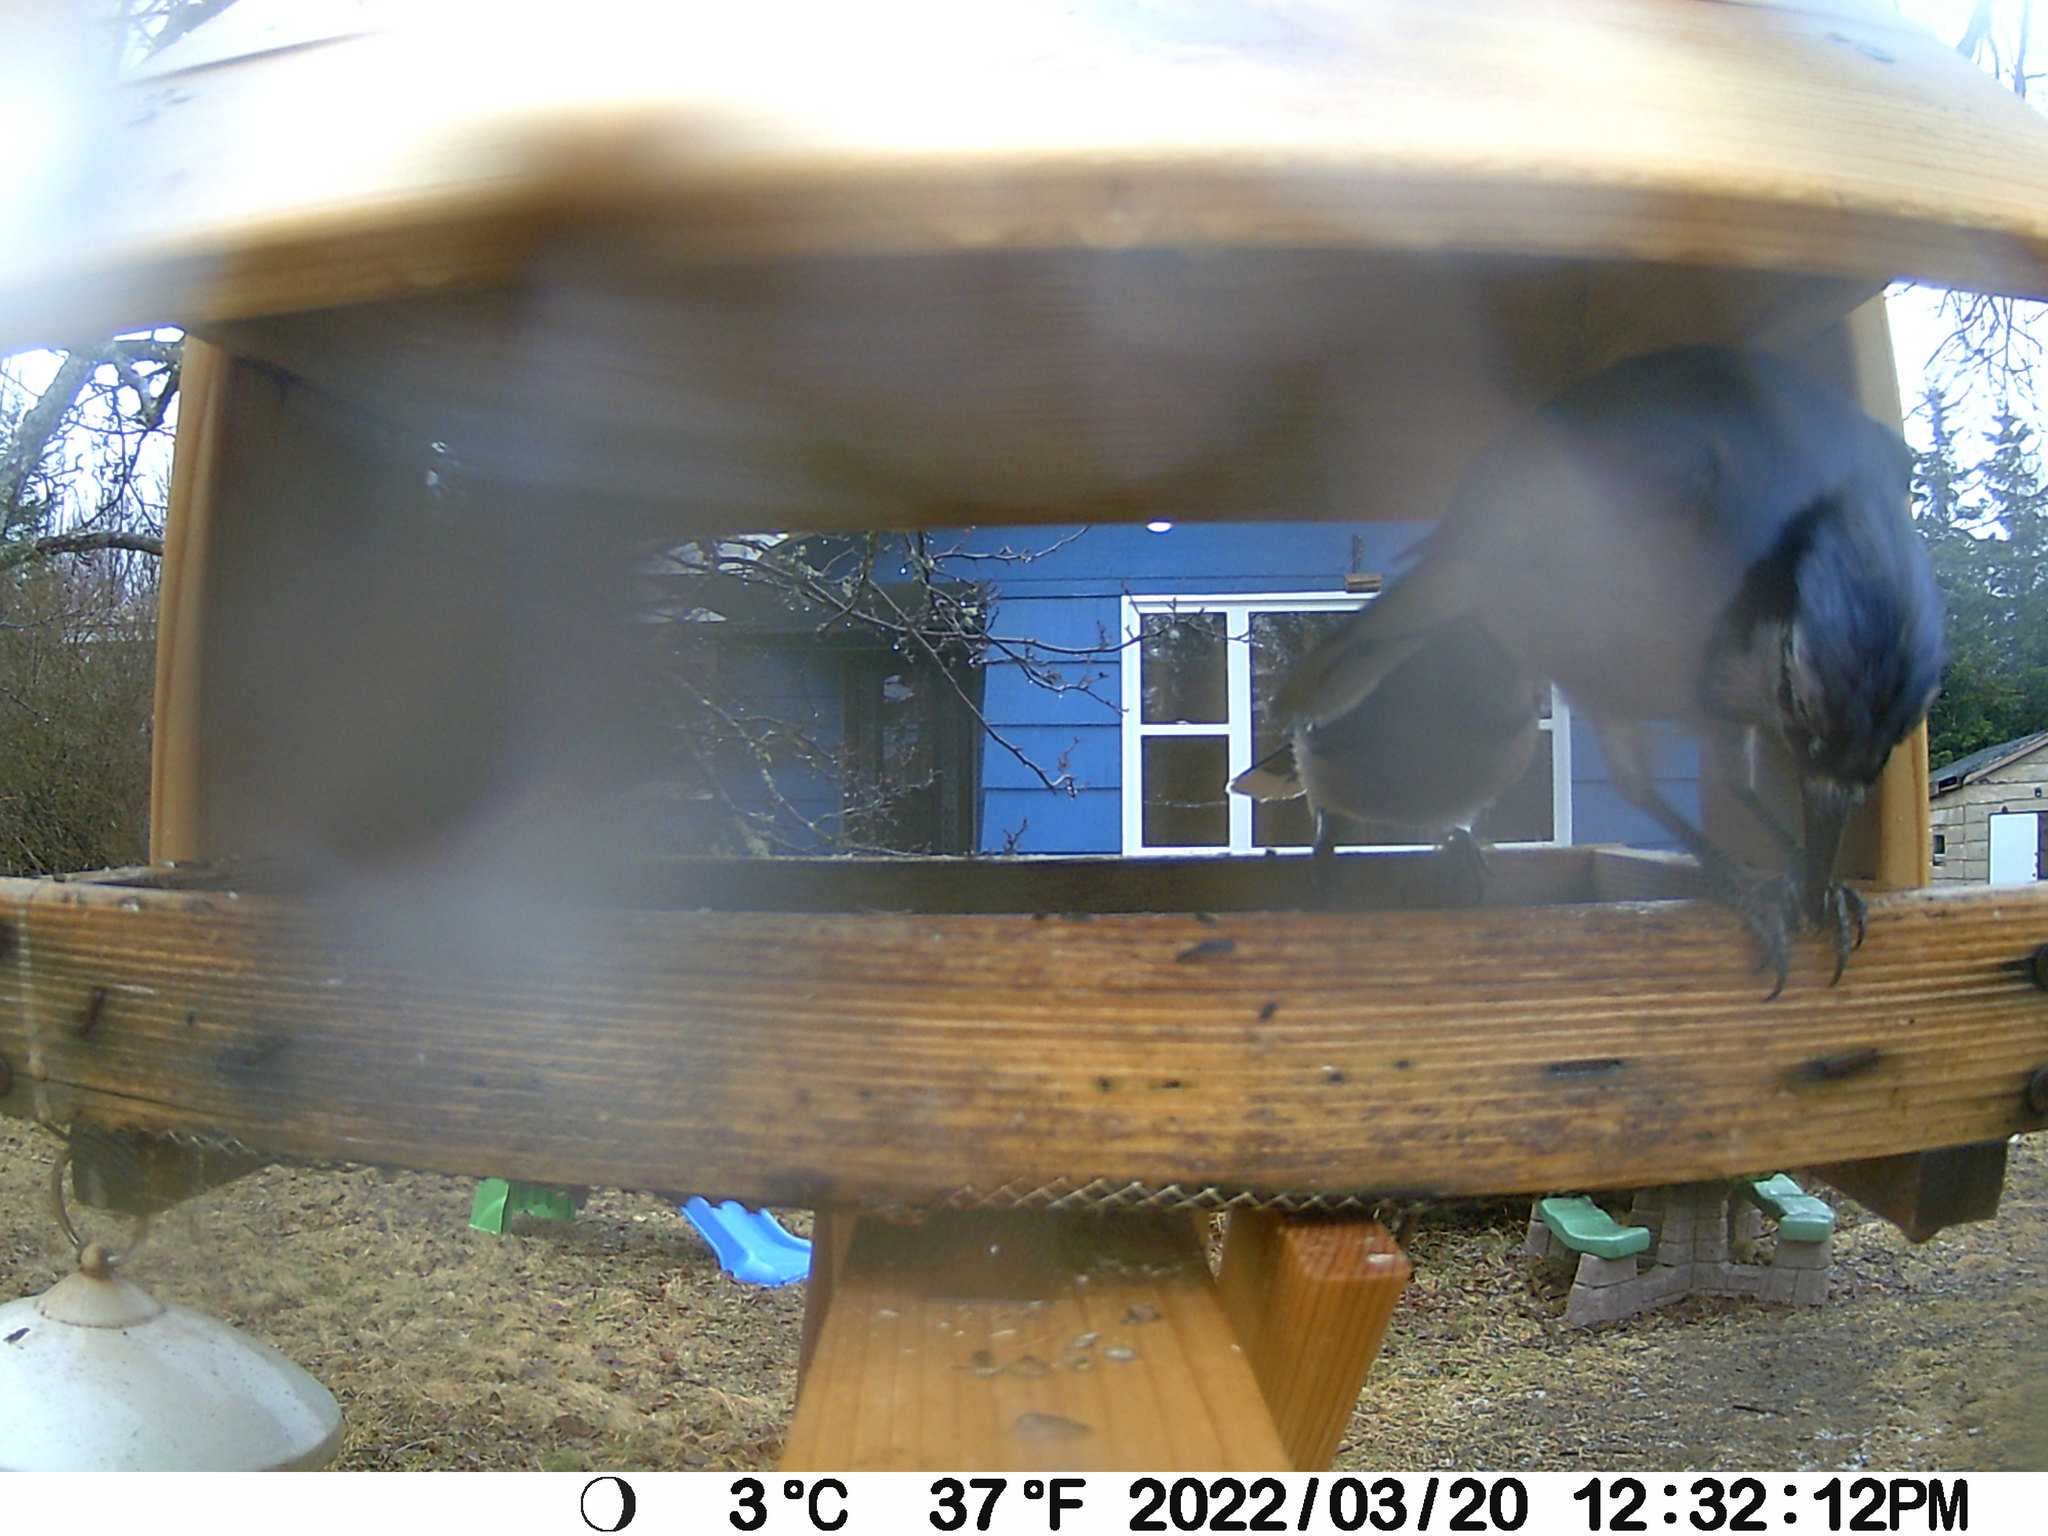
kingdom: Animalia
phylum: Chordata
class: Aves
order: Passeriformes
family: Corvidae
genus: Cyanocitta
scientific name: Cyanocitta cristata
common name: Blue jay
